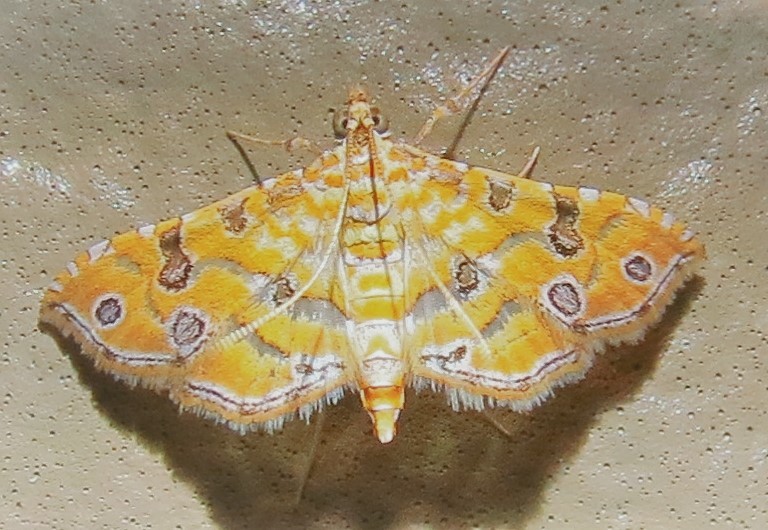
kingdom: Animalia
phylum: Arthropoda
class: Insecta
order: Lepidoptera
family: Crambidae
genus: Ommatospila
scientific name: Ommatospila narcaeusalis
